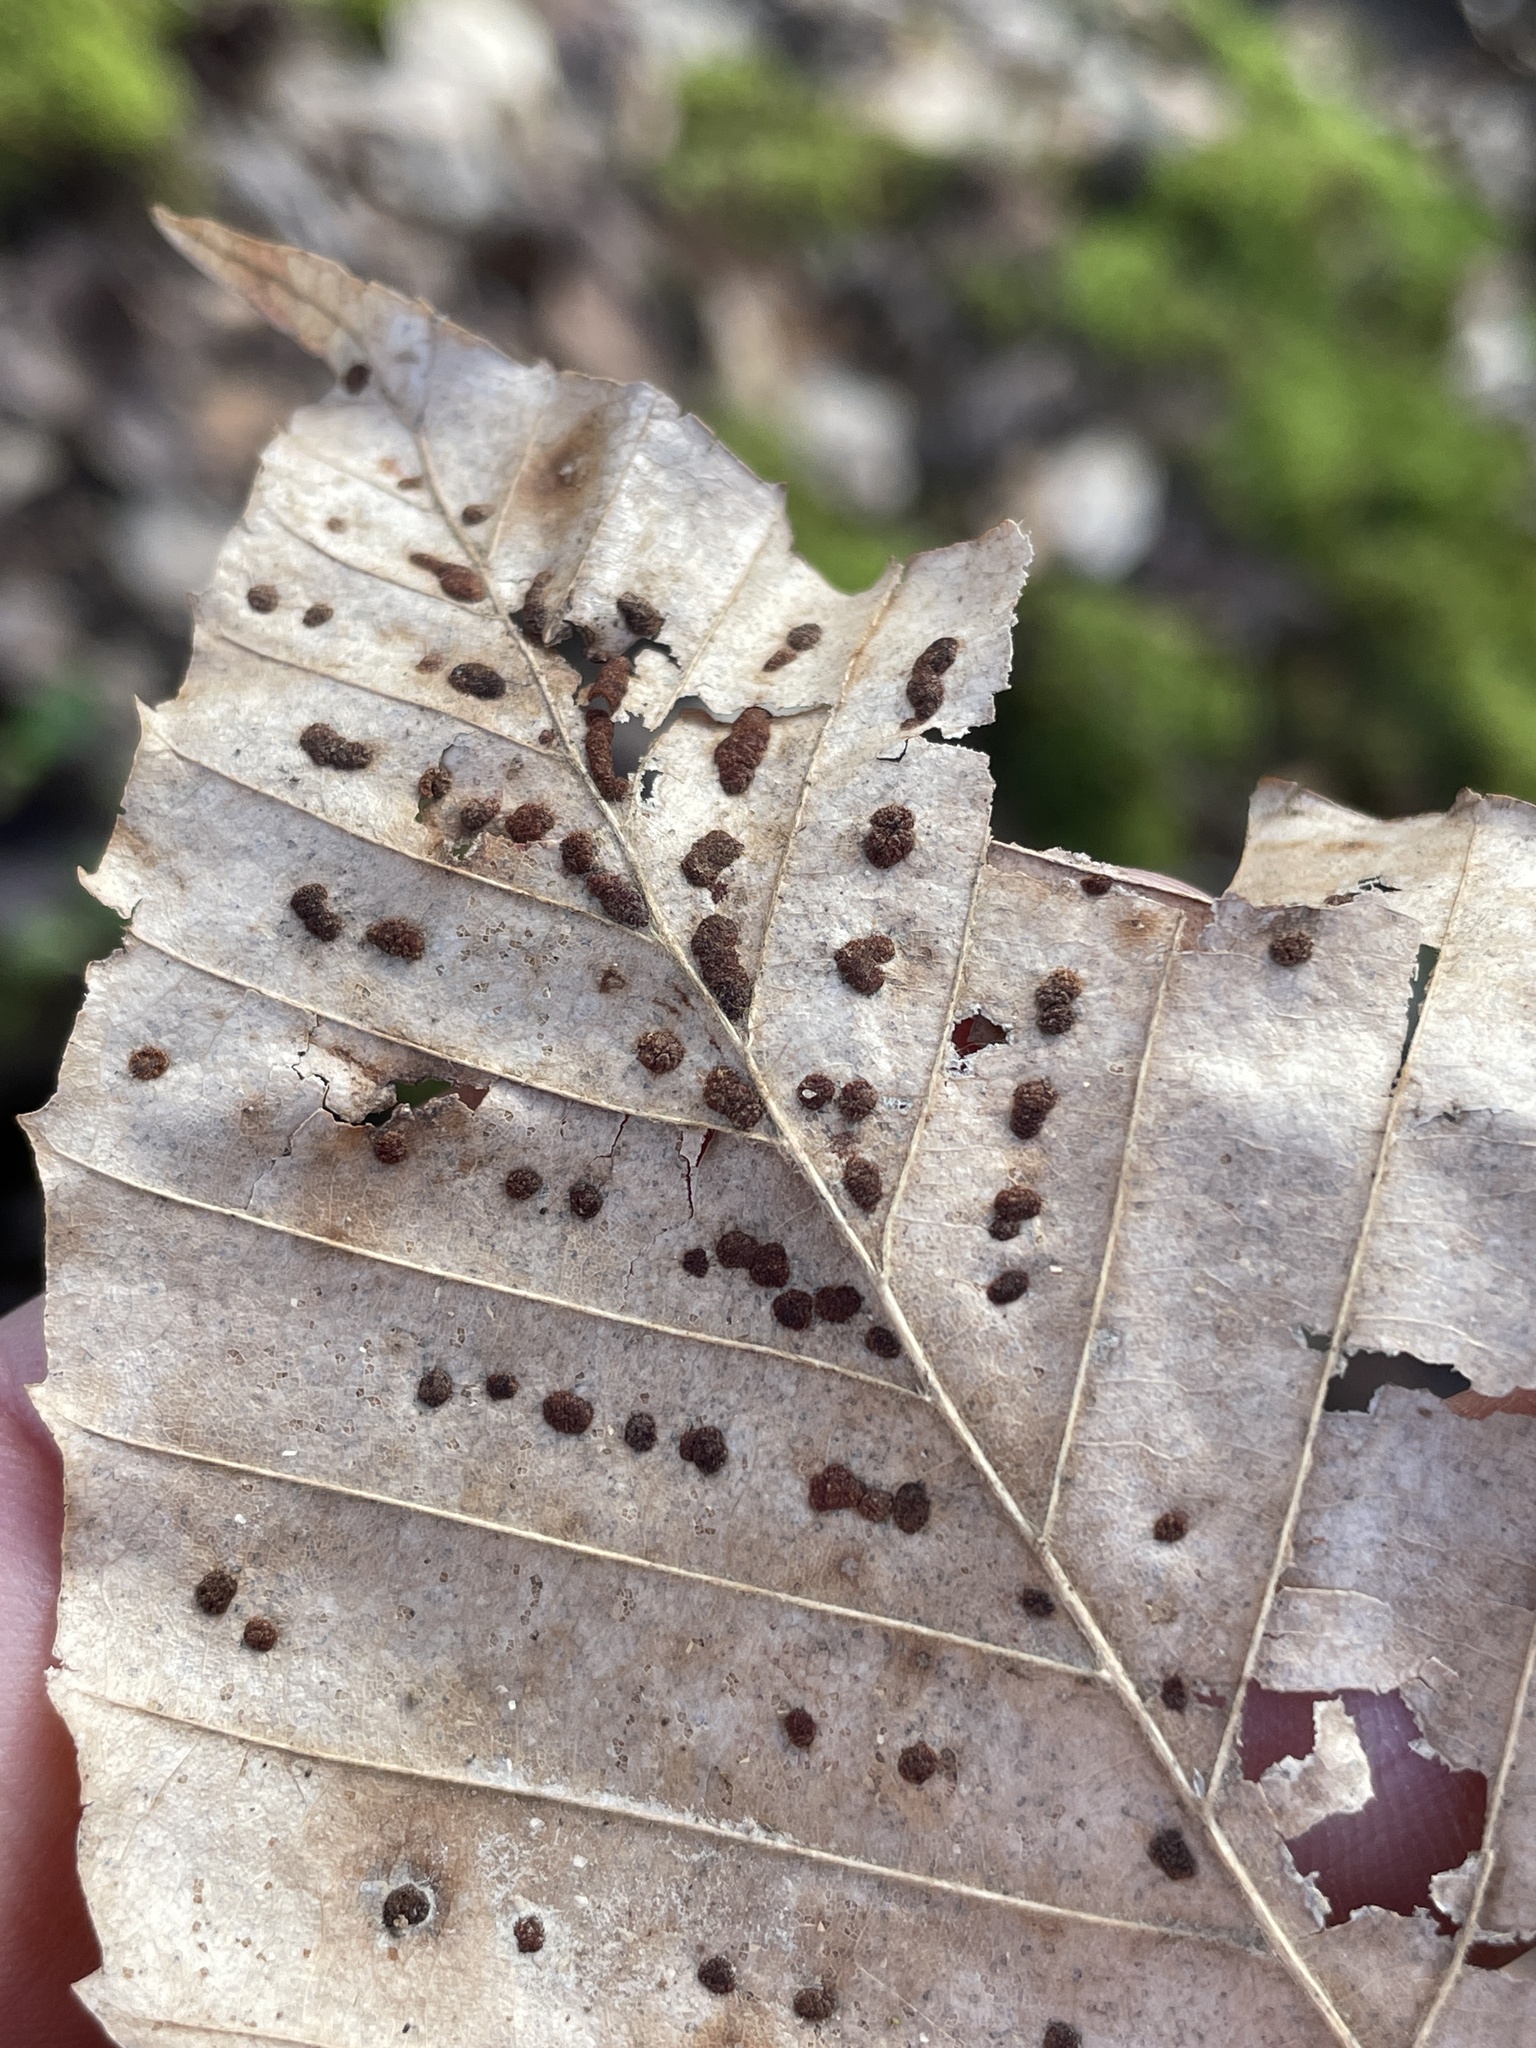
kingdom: Animalia
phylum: Arthropoda
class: Arachnida
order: Trombidiformes
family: Eriophyidae
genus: Acalitus
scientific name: Acalitus
